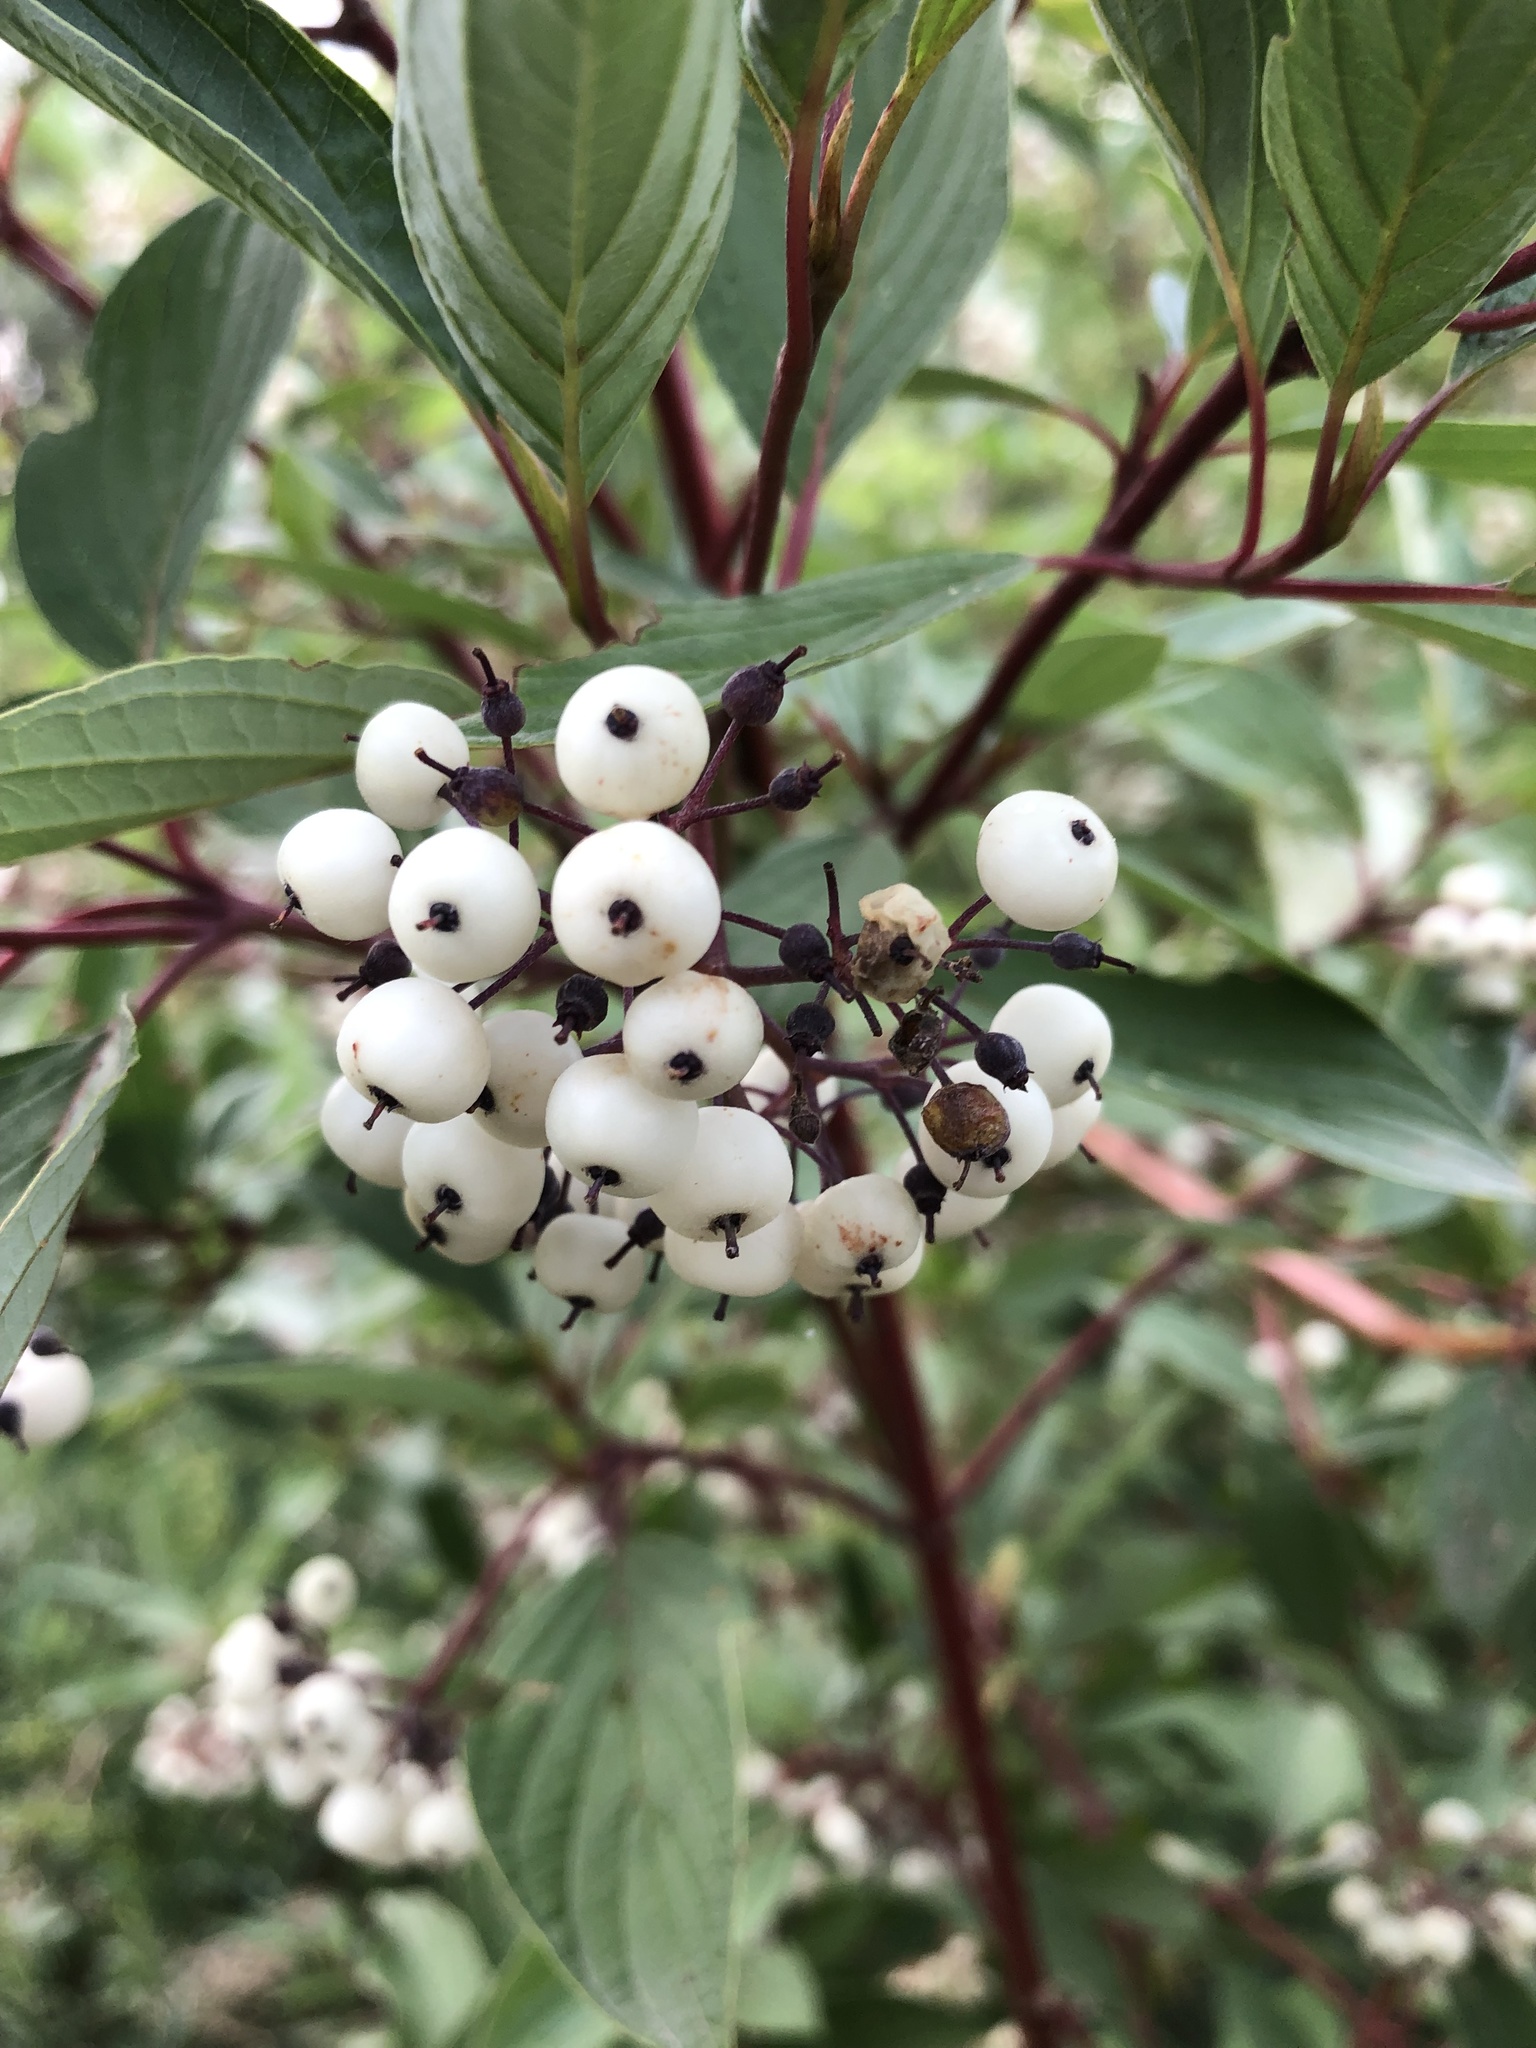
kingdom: Plantae
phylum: Tracheophyta
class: Magnoliopsida
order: Cornales
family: Cornaceae
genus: Cornus
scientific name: Cornus sericea
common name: Red-osier dogwood
